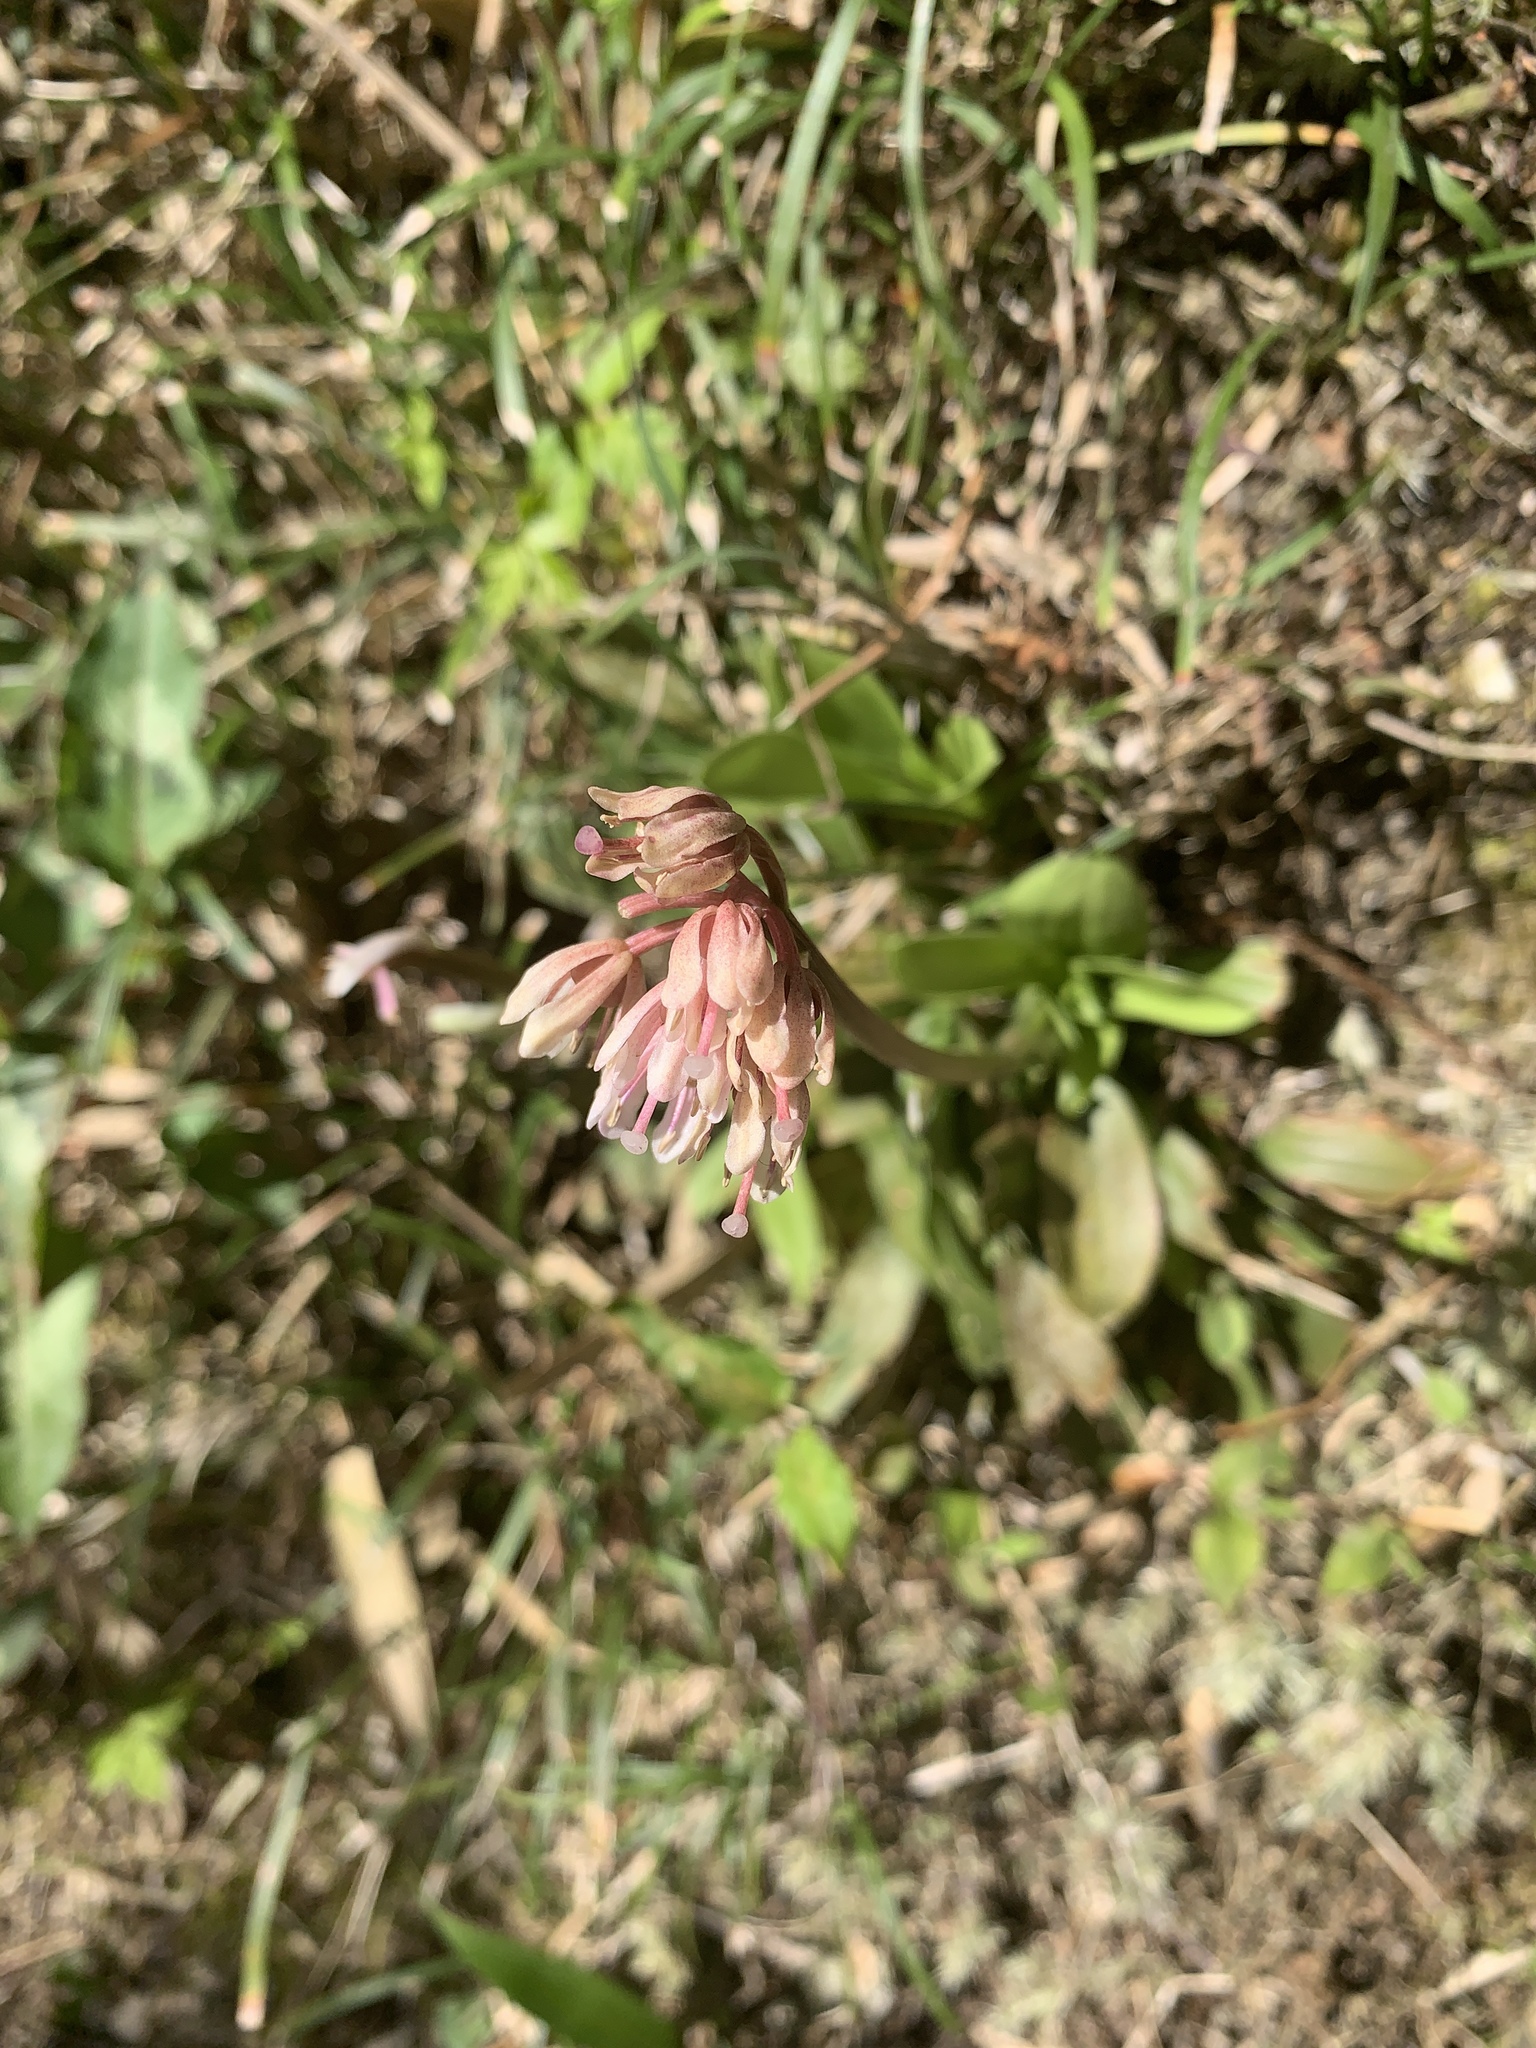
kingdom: Plantae
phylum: Tracheophyta
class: Liliopsida
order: Liliales
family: Melanthiaceae
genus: Helonias
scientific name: Helonias umbellata
